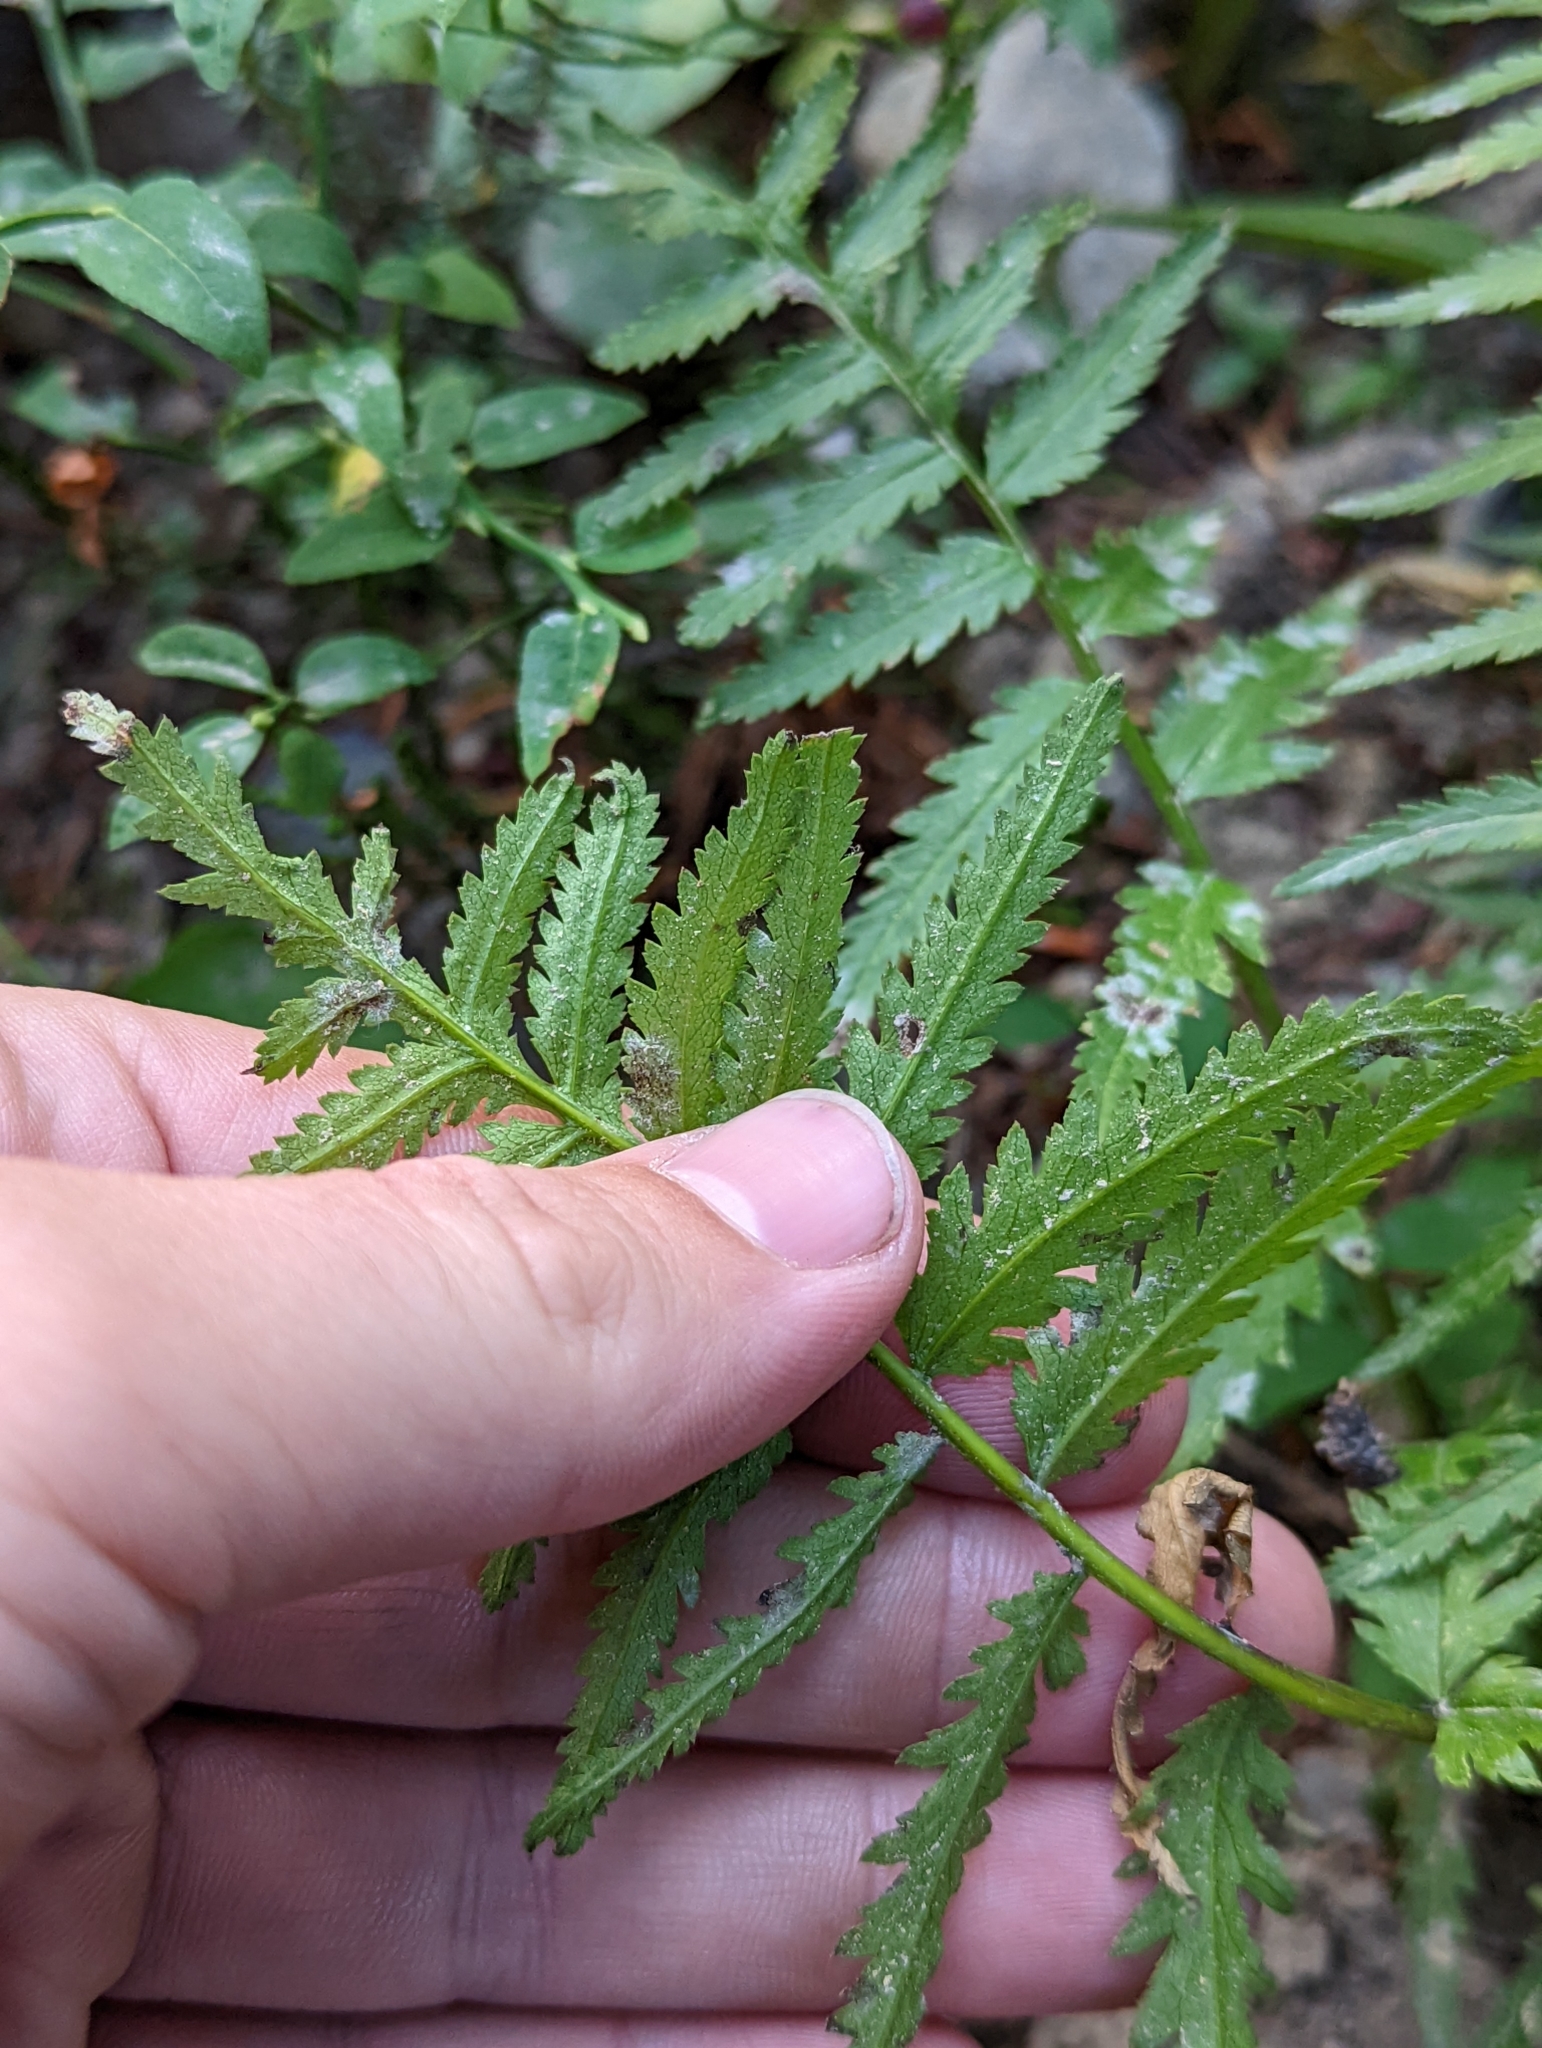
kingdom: Plantae
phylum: Tracheophyta
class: Magnoliopsida
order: Lamiales
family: Orobanchaceae
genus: Pedicularis
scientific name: Pedicularis bracteosa
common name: Bracted lousewort
